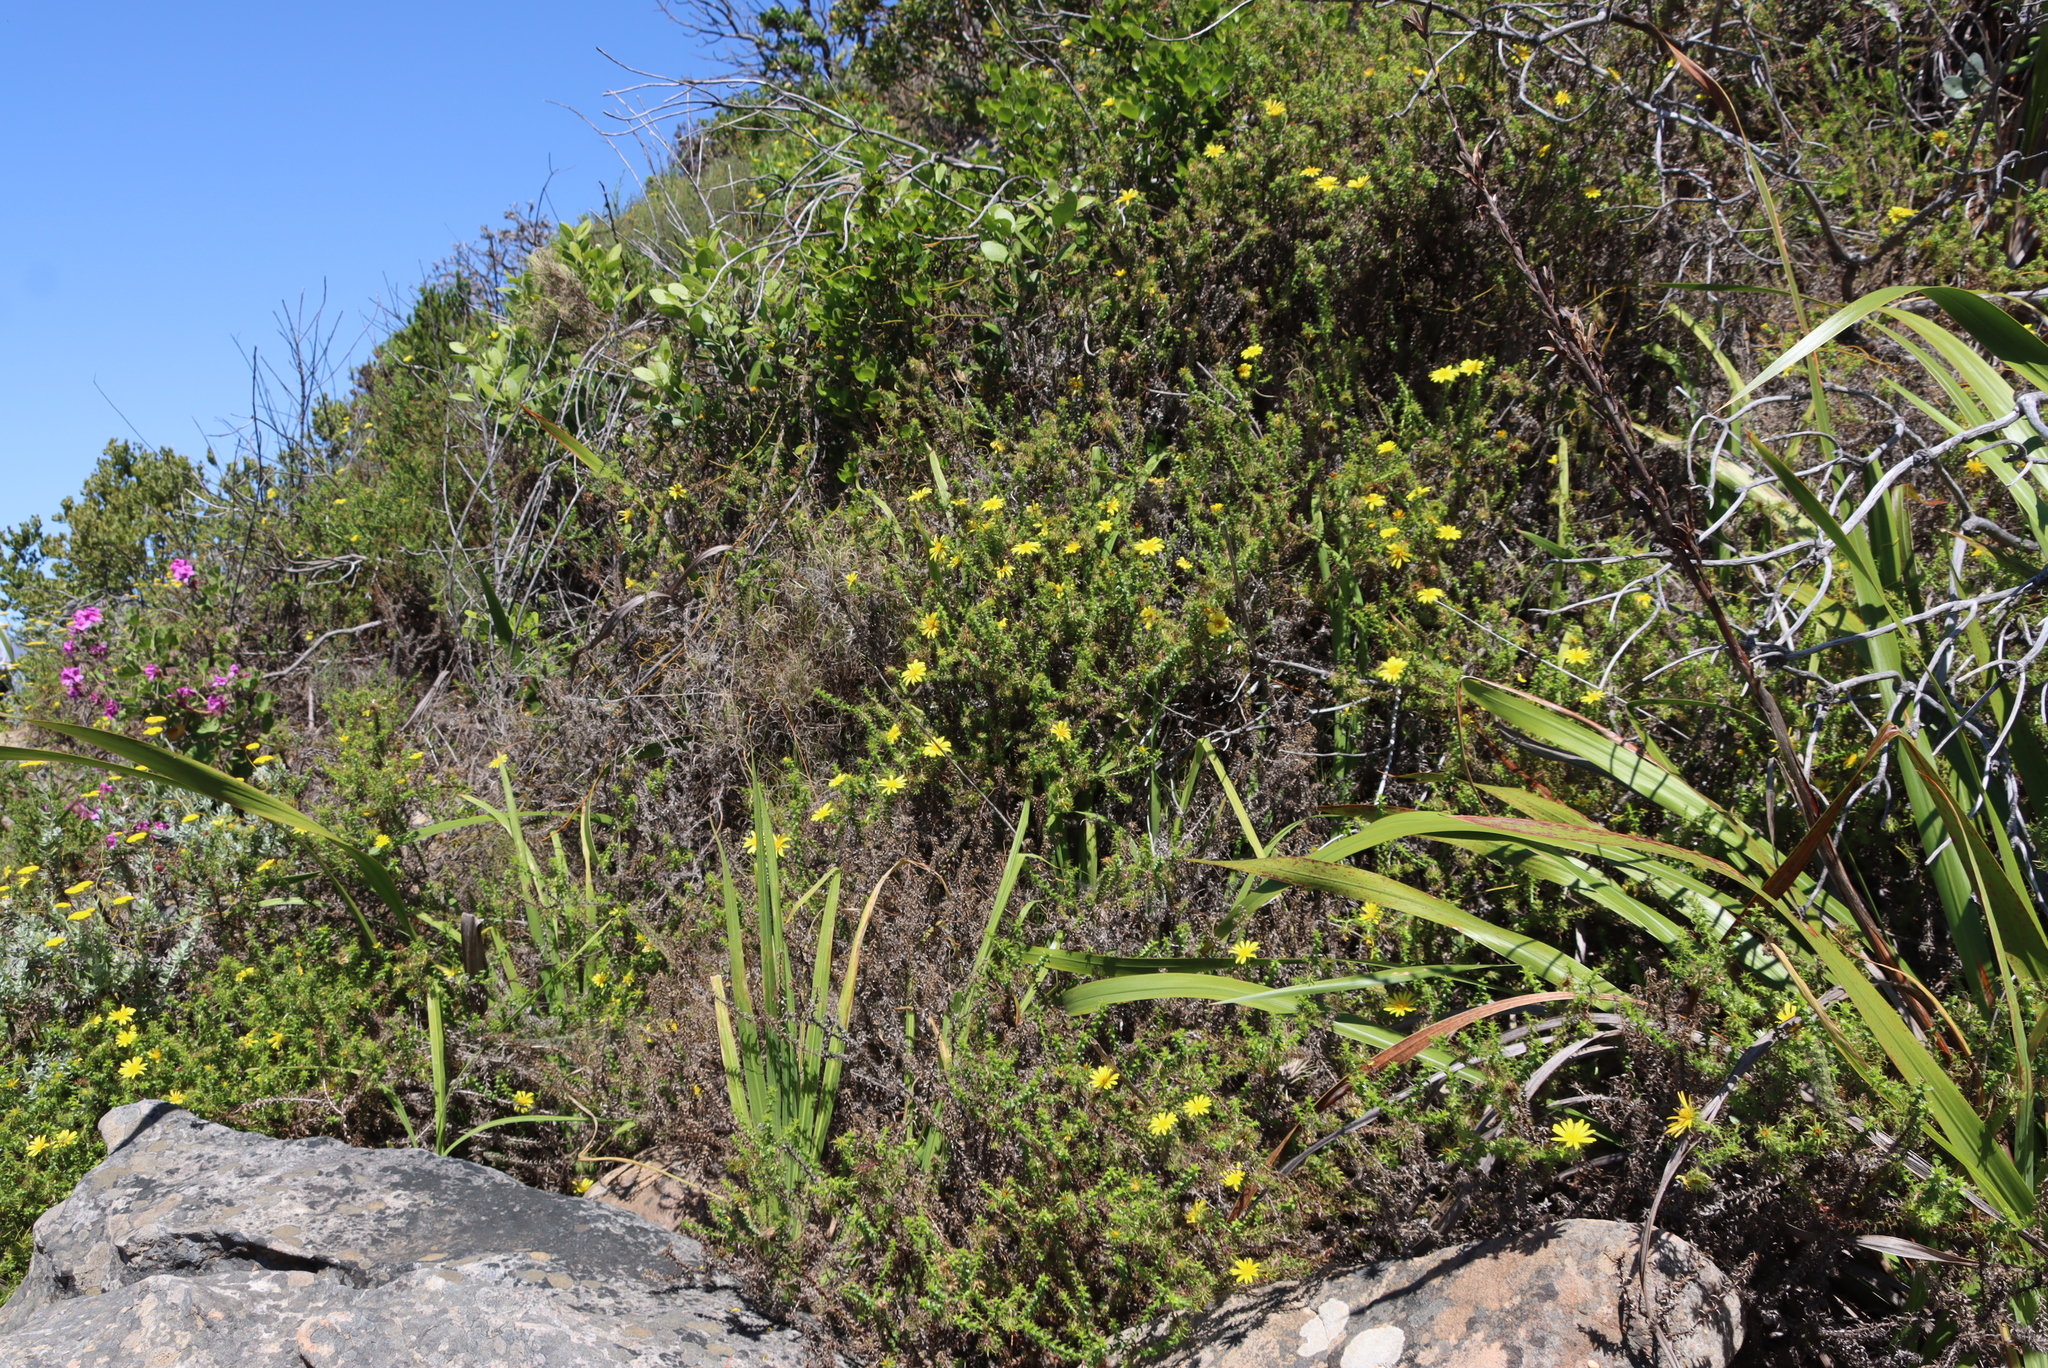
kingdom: Plantae
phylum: Tracheophyta
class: Magnoliopsida
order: Asterales
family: Asteraceae
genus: Cullumia
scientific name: Cullumia setosa
